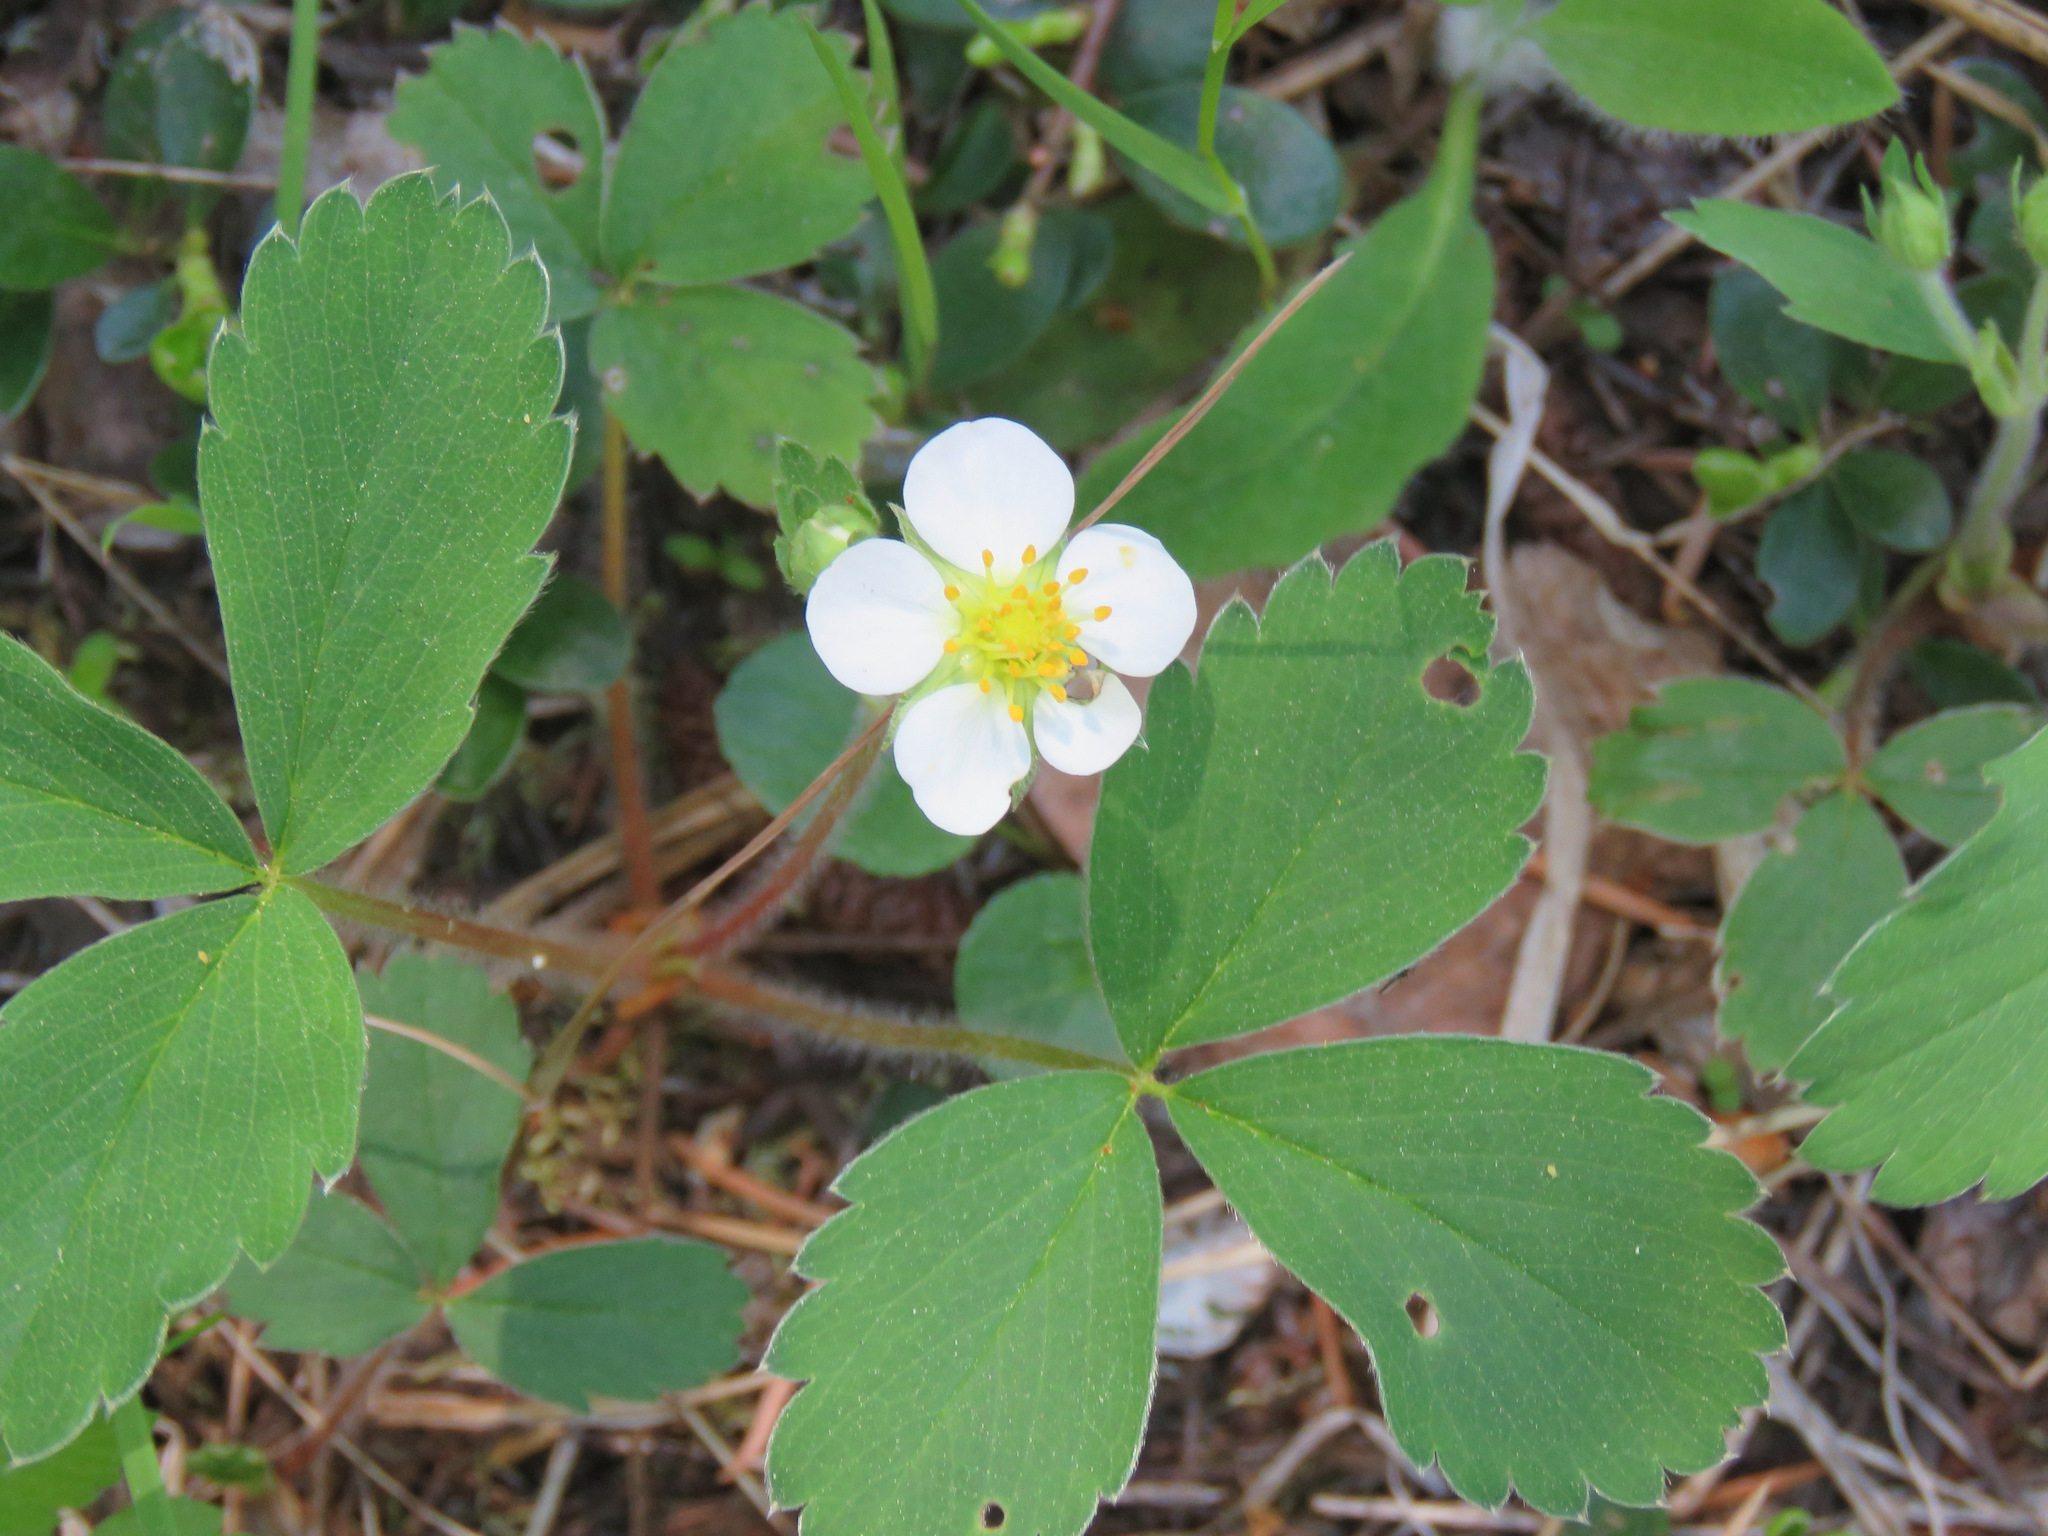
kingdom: Plantae
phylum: Tracheophyta
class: Magnoliopsida
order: Rosales
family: Rosaceae
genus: Fragaria
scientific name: Fragaria virginiana
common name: Thickleaved wild strawberry
